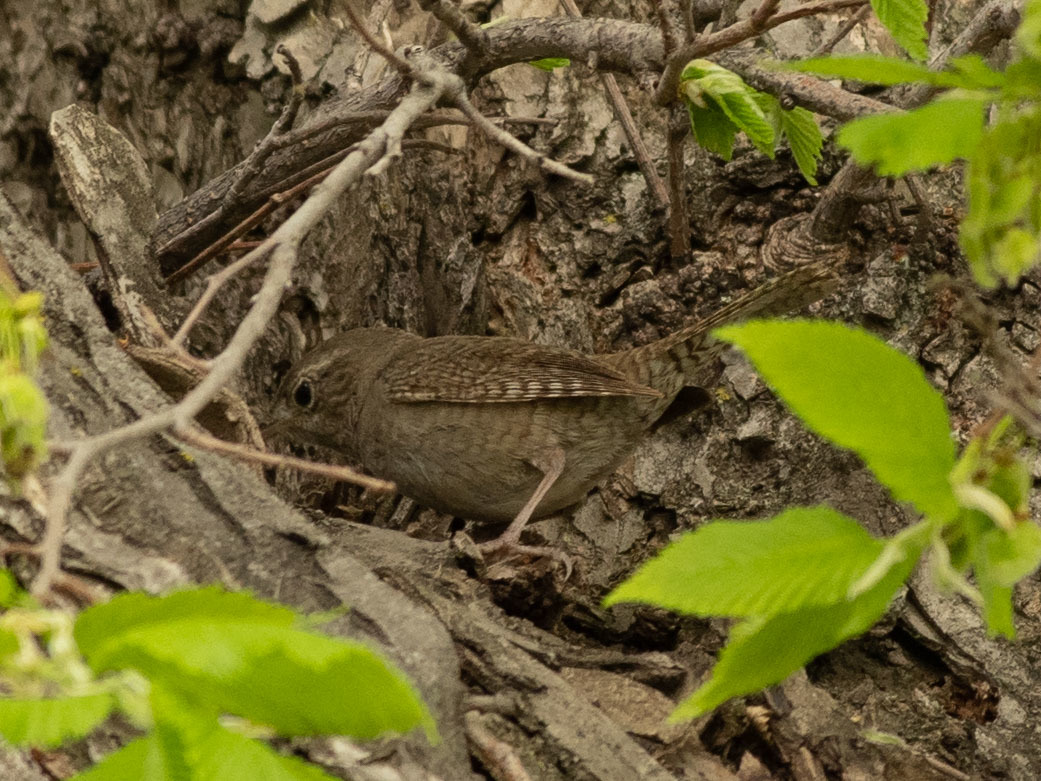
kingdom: Animalia
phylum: Chordata
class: Aves
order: Passeriformes
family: Troglodytidae
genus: Troglodytes
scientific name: Troglodytes aedon
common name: House wren
